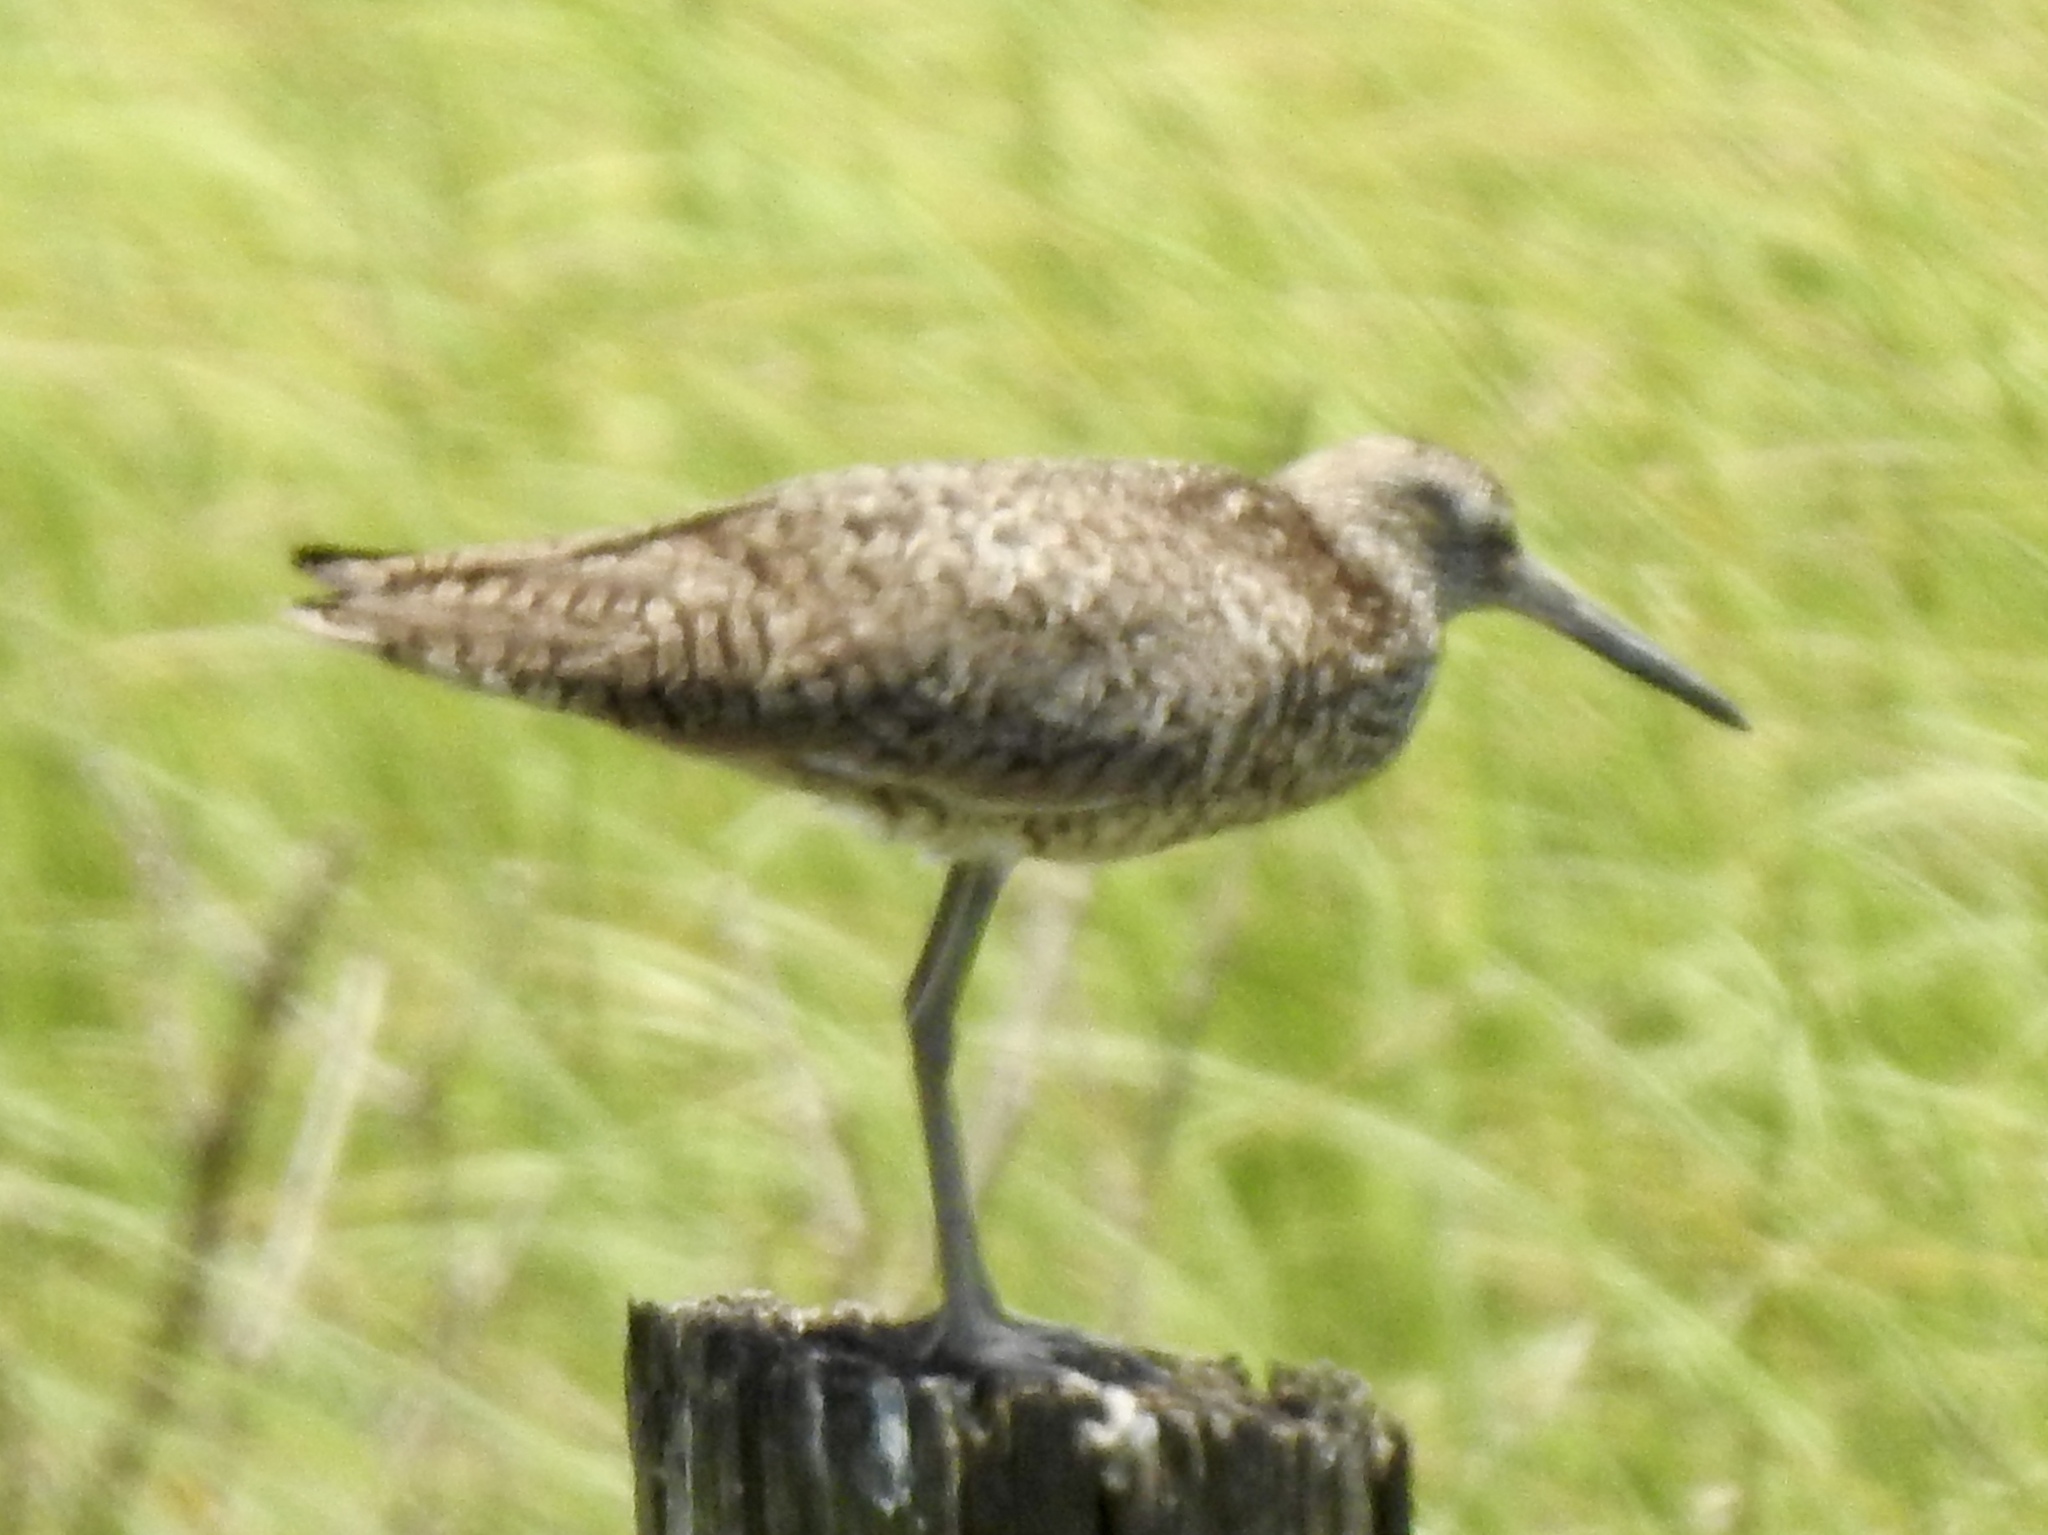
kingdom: Animalia
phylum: Chordata
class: Aves
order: Charadriiformes
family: Scolopacidae
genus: Tringa
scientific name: Tringa semipalmata
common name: Willet
